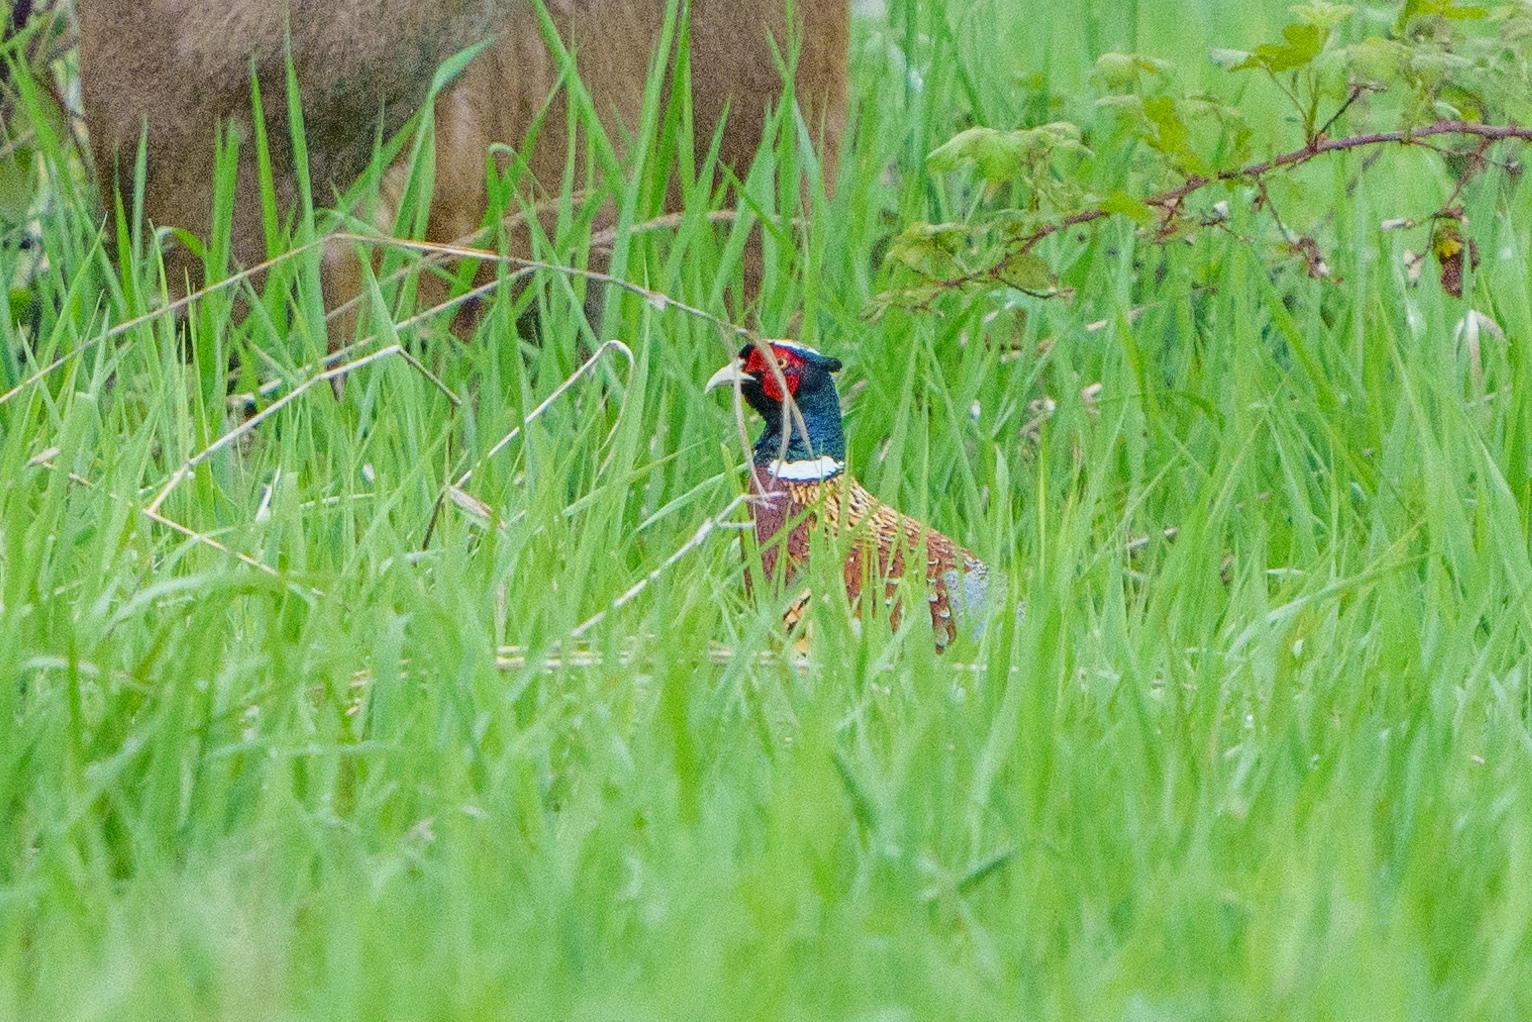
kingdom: Animalia
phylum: Chordata
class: Aves
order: Galliformes
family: Phasianidae
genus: Phasianus
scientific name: Phasianus colchicus
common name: Common pheasant
